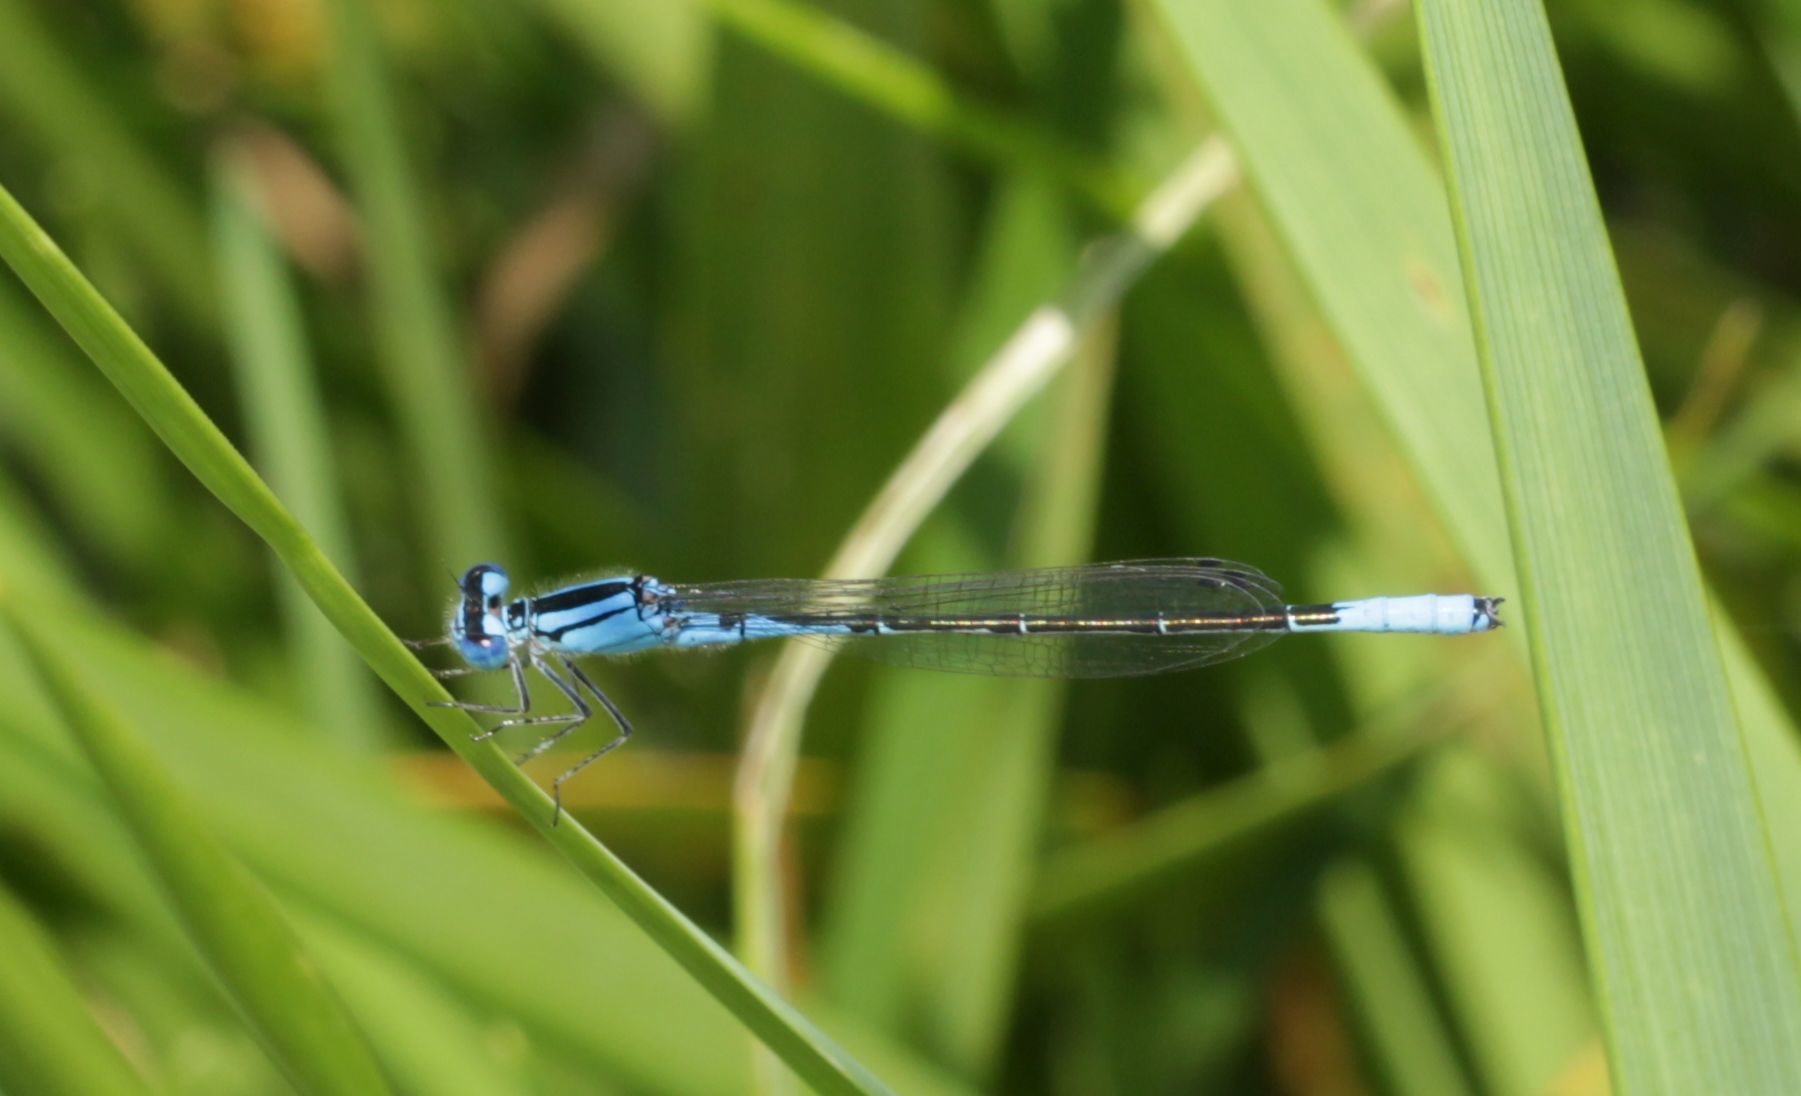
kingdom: Animalia
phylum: Arthropoda
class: Insecta
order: Odonata
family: Coenagrionidae
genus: Enallagma
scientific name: Enallagma aspersum
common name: Azure bluet
